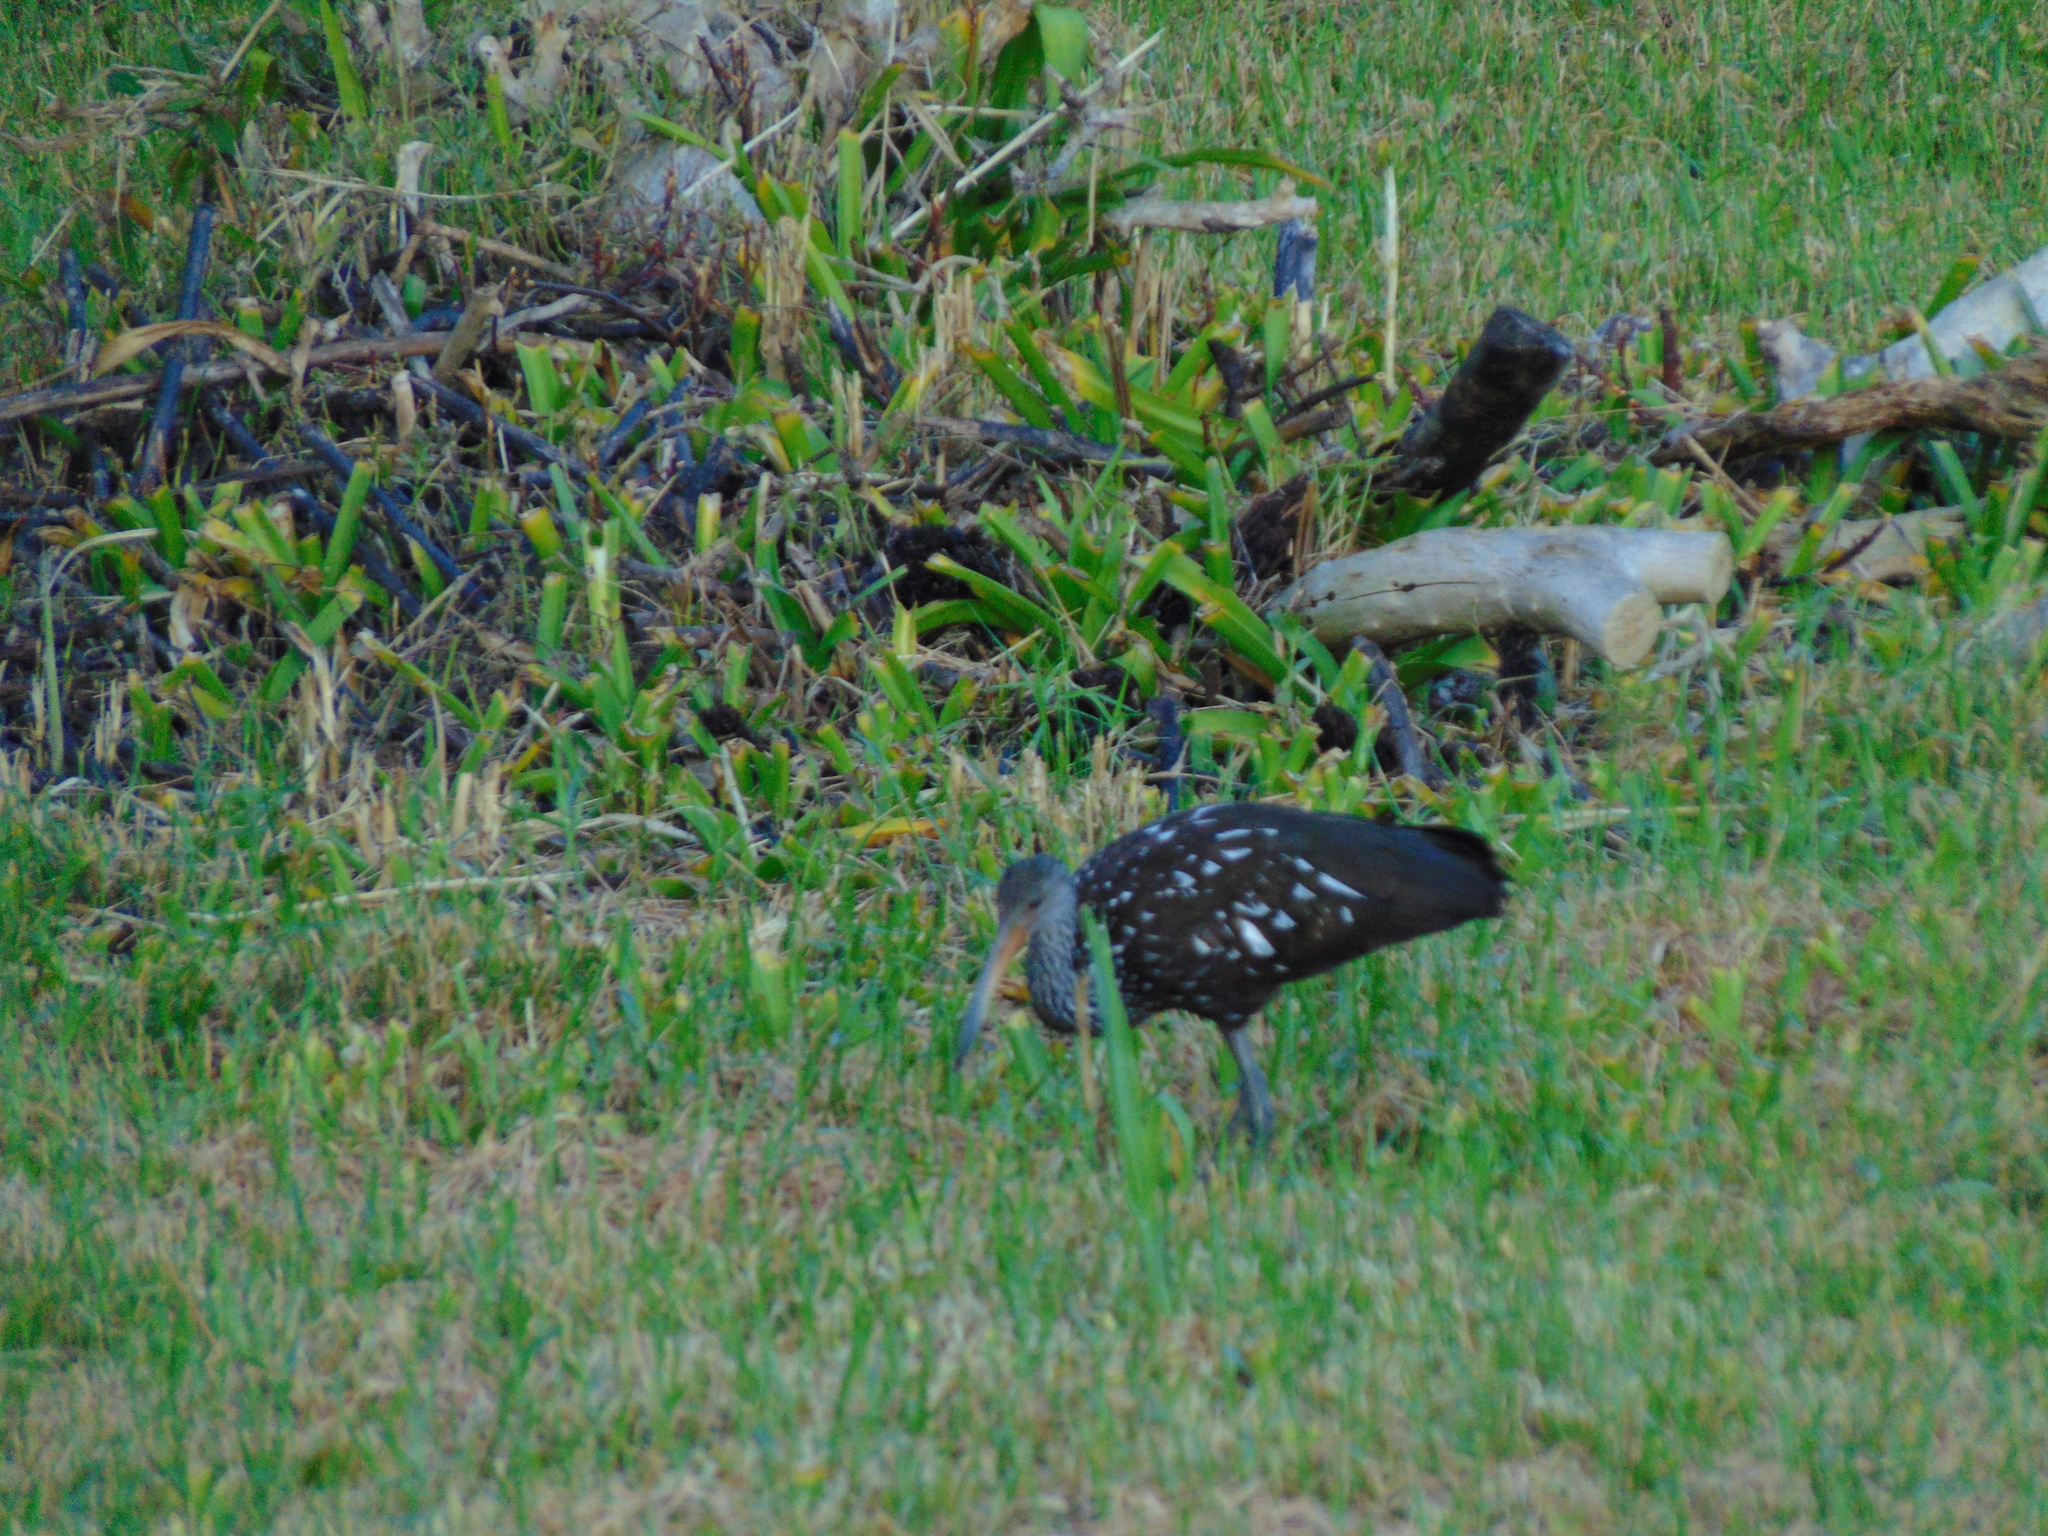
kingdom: Animalia
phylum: Chordata
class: Aves
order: Gruiformes
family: Aramidae
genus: Aramus
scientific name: Aramus guarauna
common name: Limpkin
